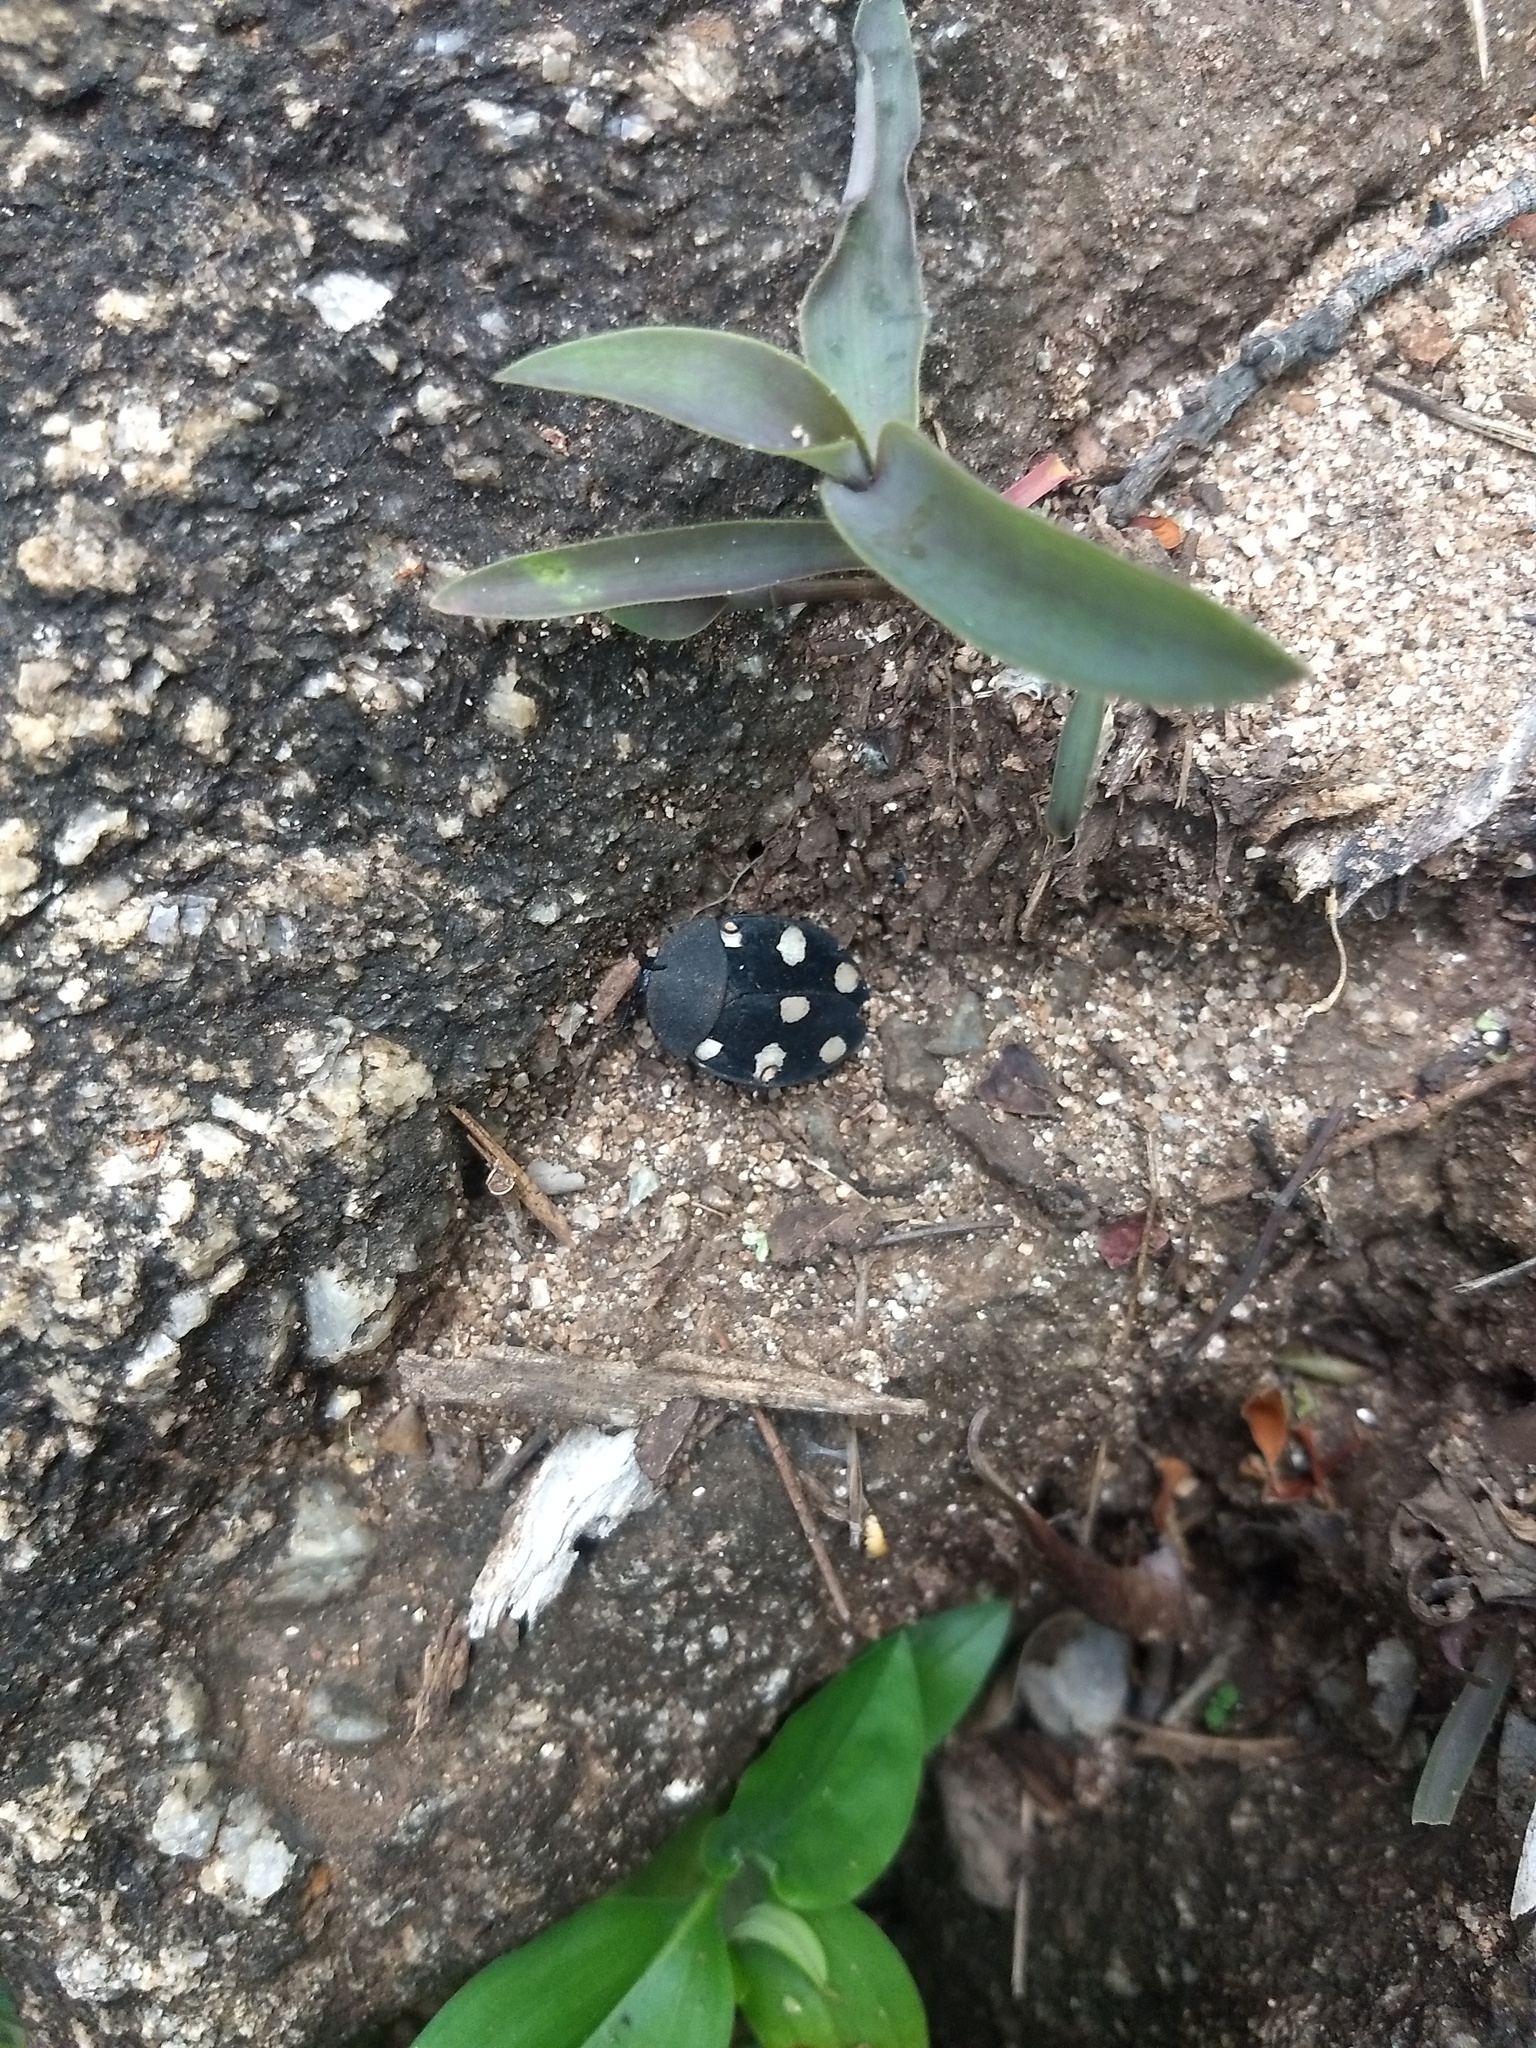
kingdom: Animalia
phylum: Arthropoda
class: Insecta
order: Blattodea
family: Corydiidae
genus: Therea
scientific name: Therea petiveriana
